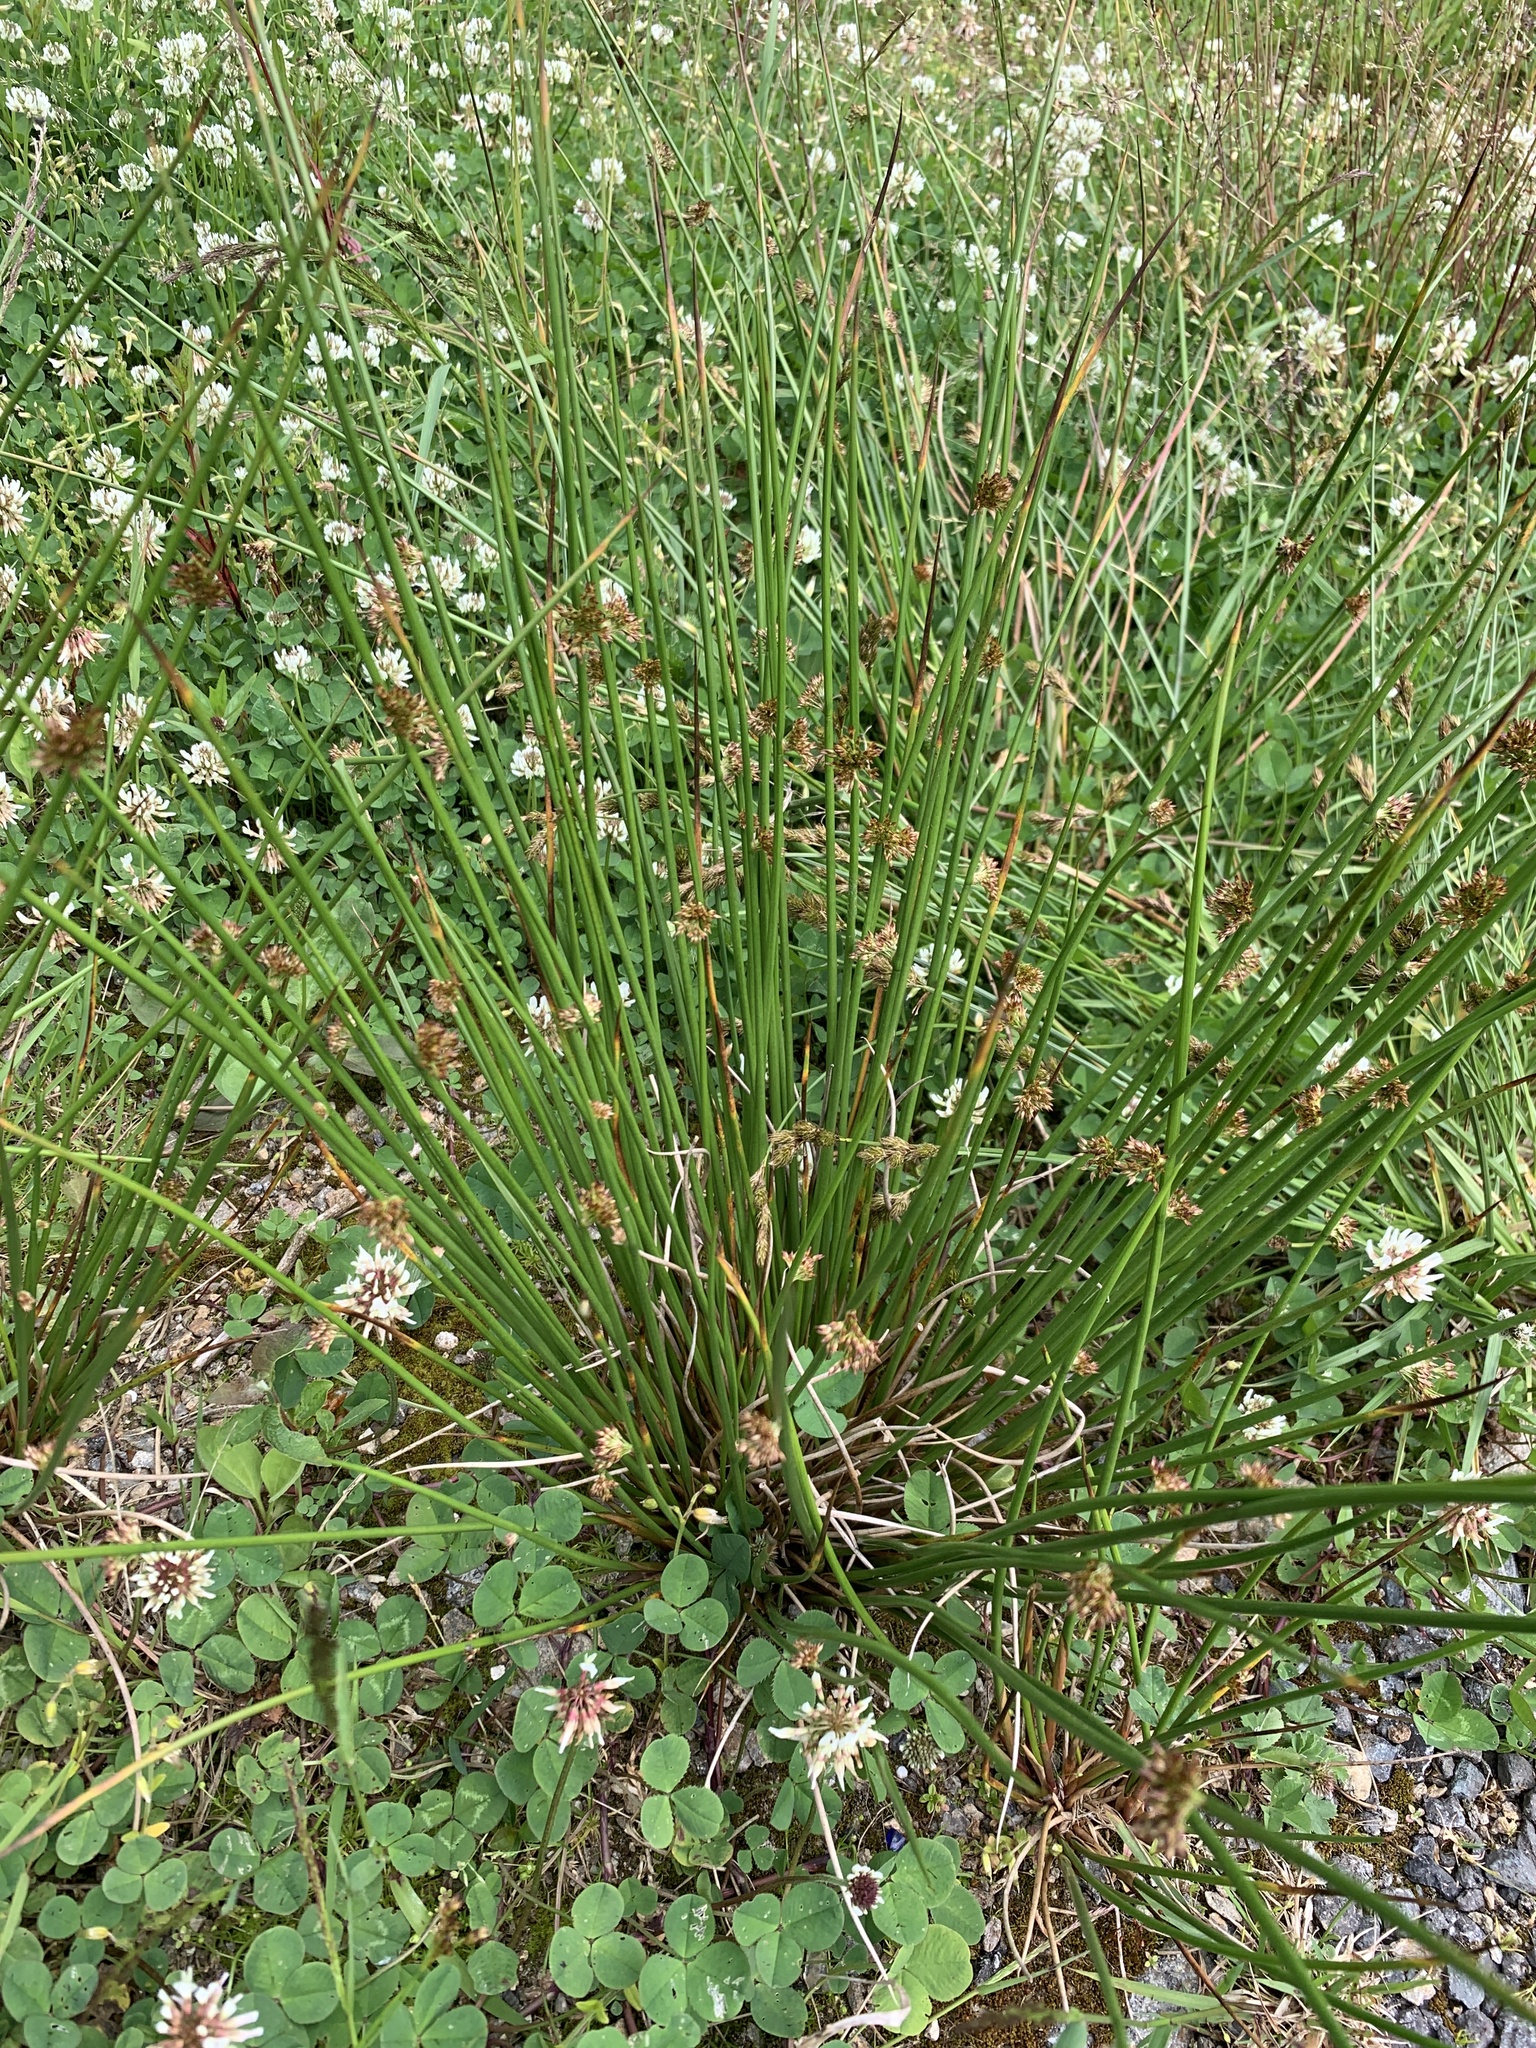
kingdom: Plantae
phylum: Tracheophyta
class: Liliopsida
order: Poales
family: Juncaceae
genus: Juncus
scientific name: Juncus effusus
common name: Soft rush
